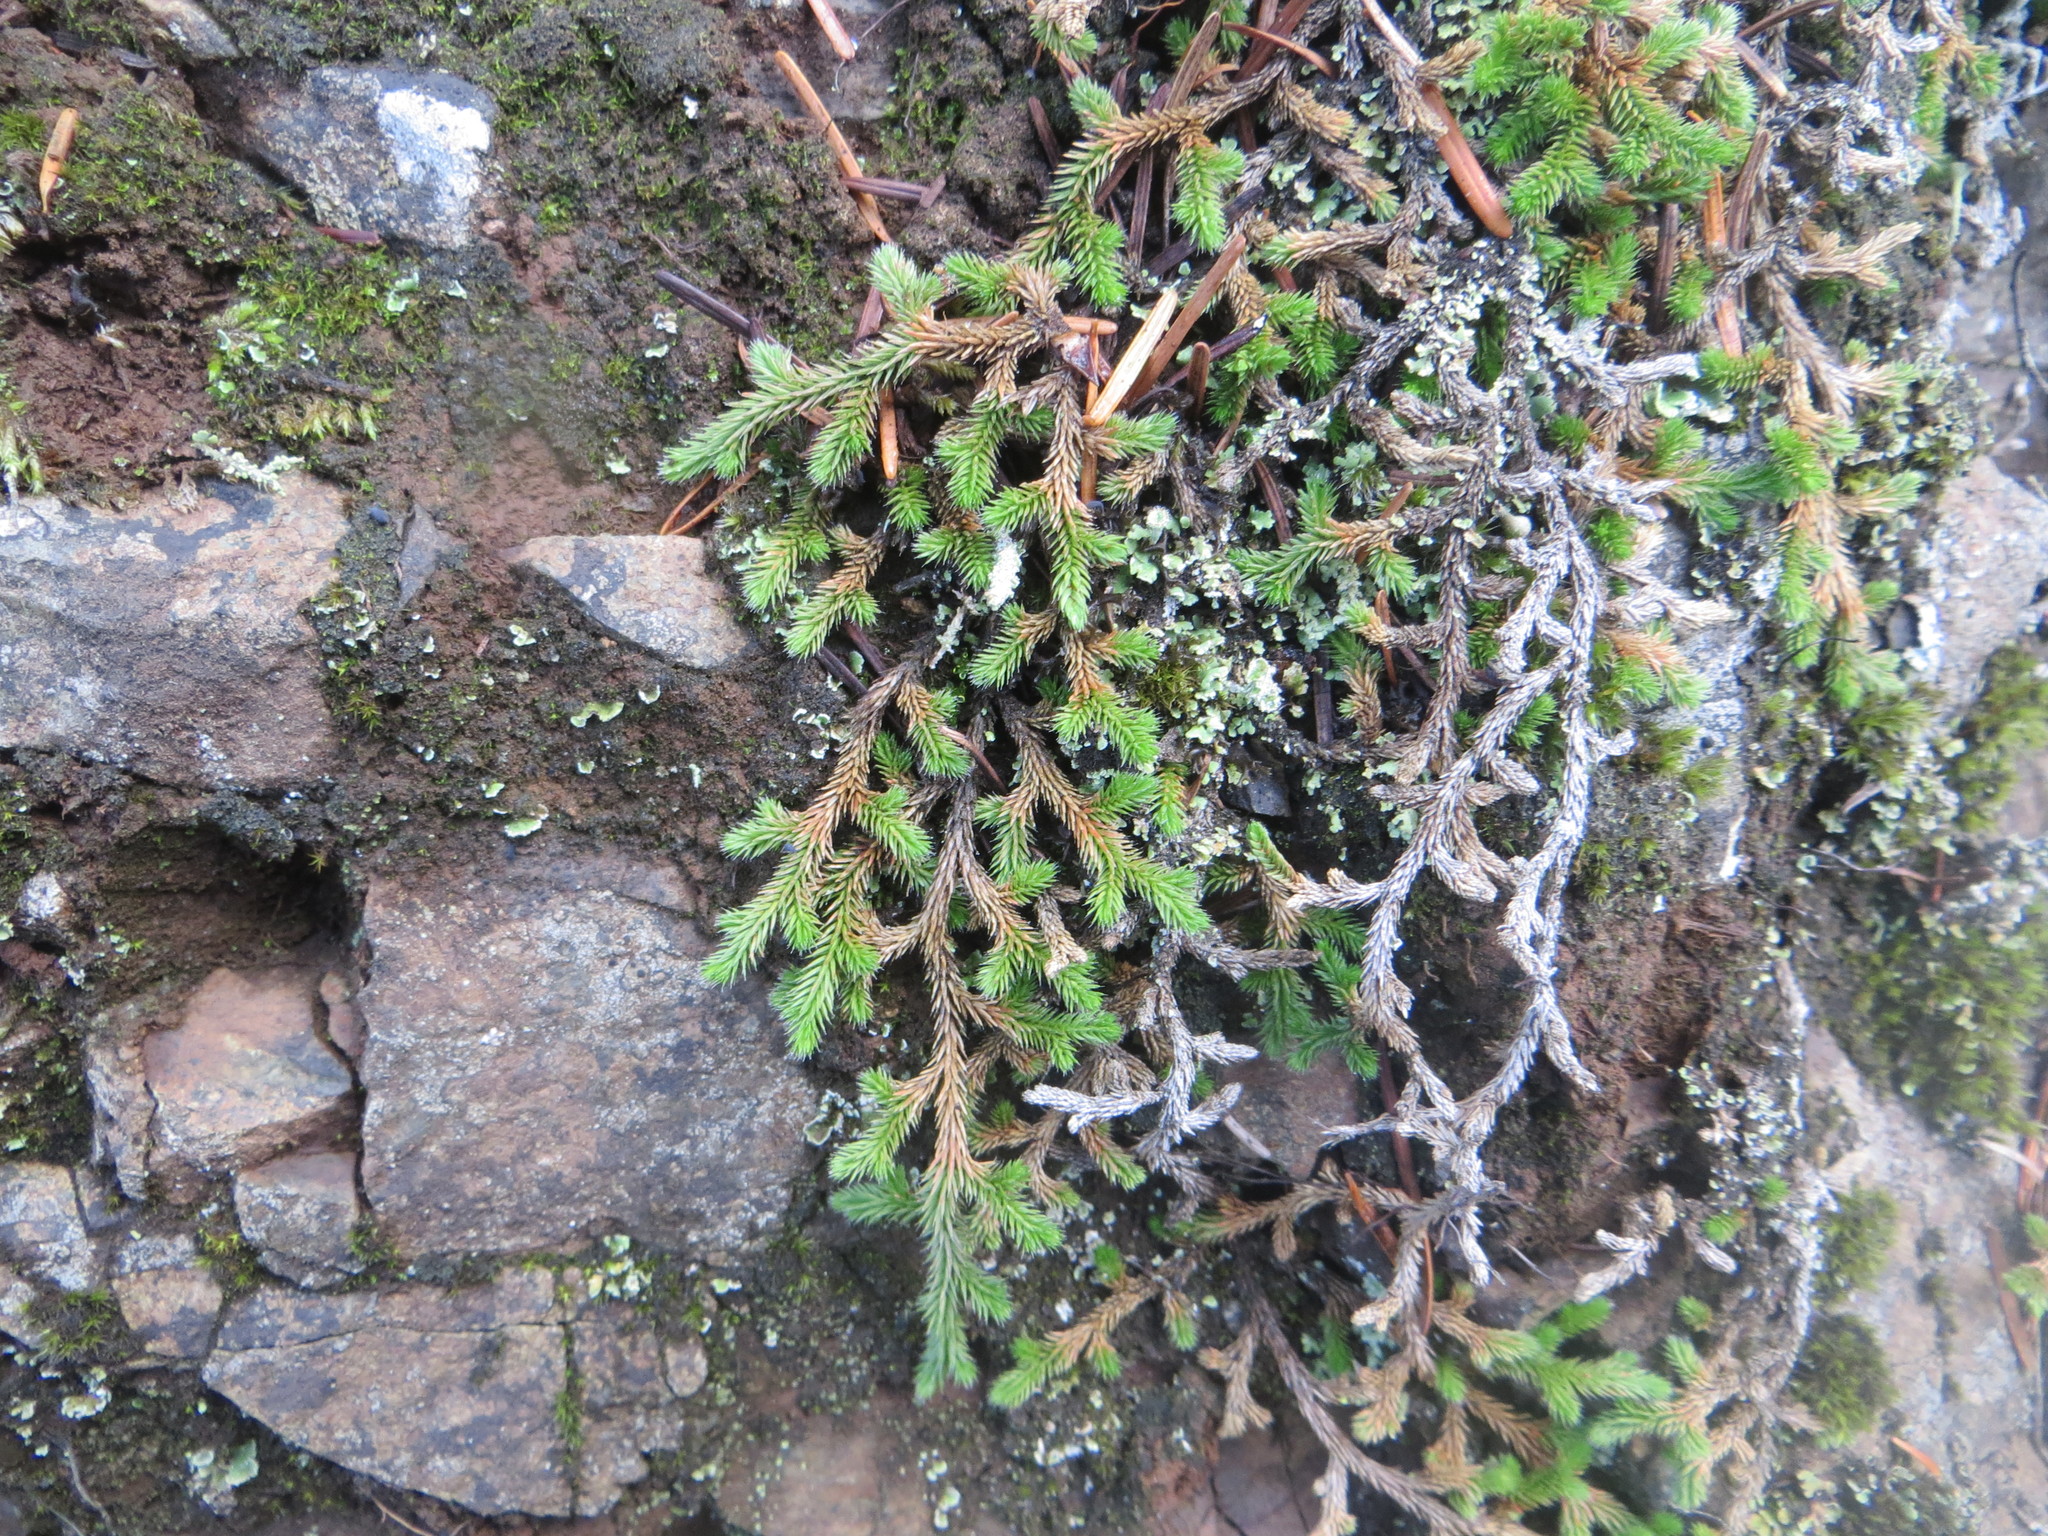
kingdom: Plantae
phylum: Tracheophyta
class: Lycopodiopsida
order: Selaginellales
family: Selaginellaceae
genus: Selaginella
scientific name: Selaginella wallacei
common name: Wallace's selaginella
